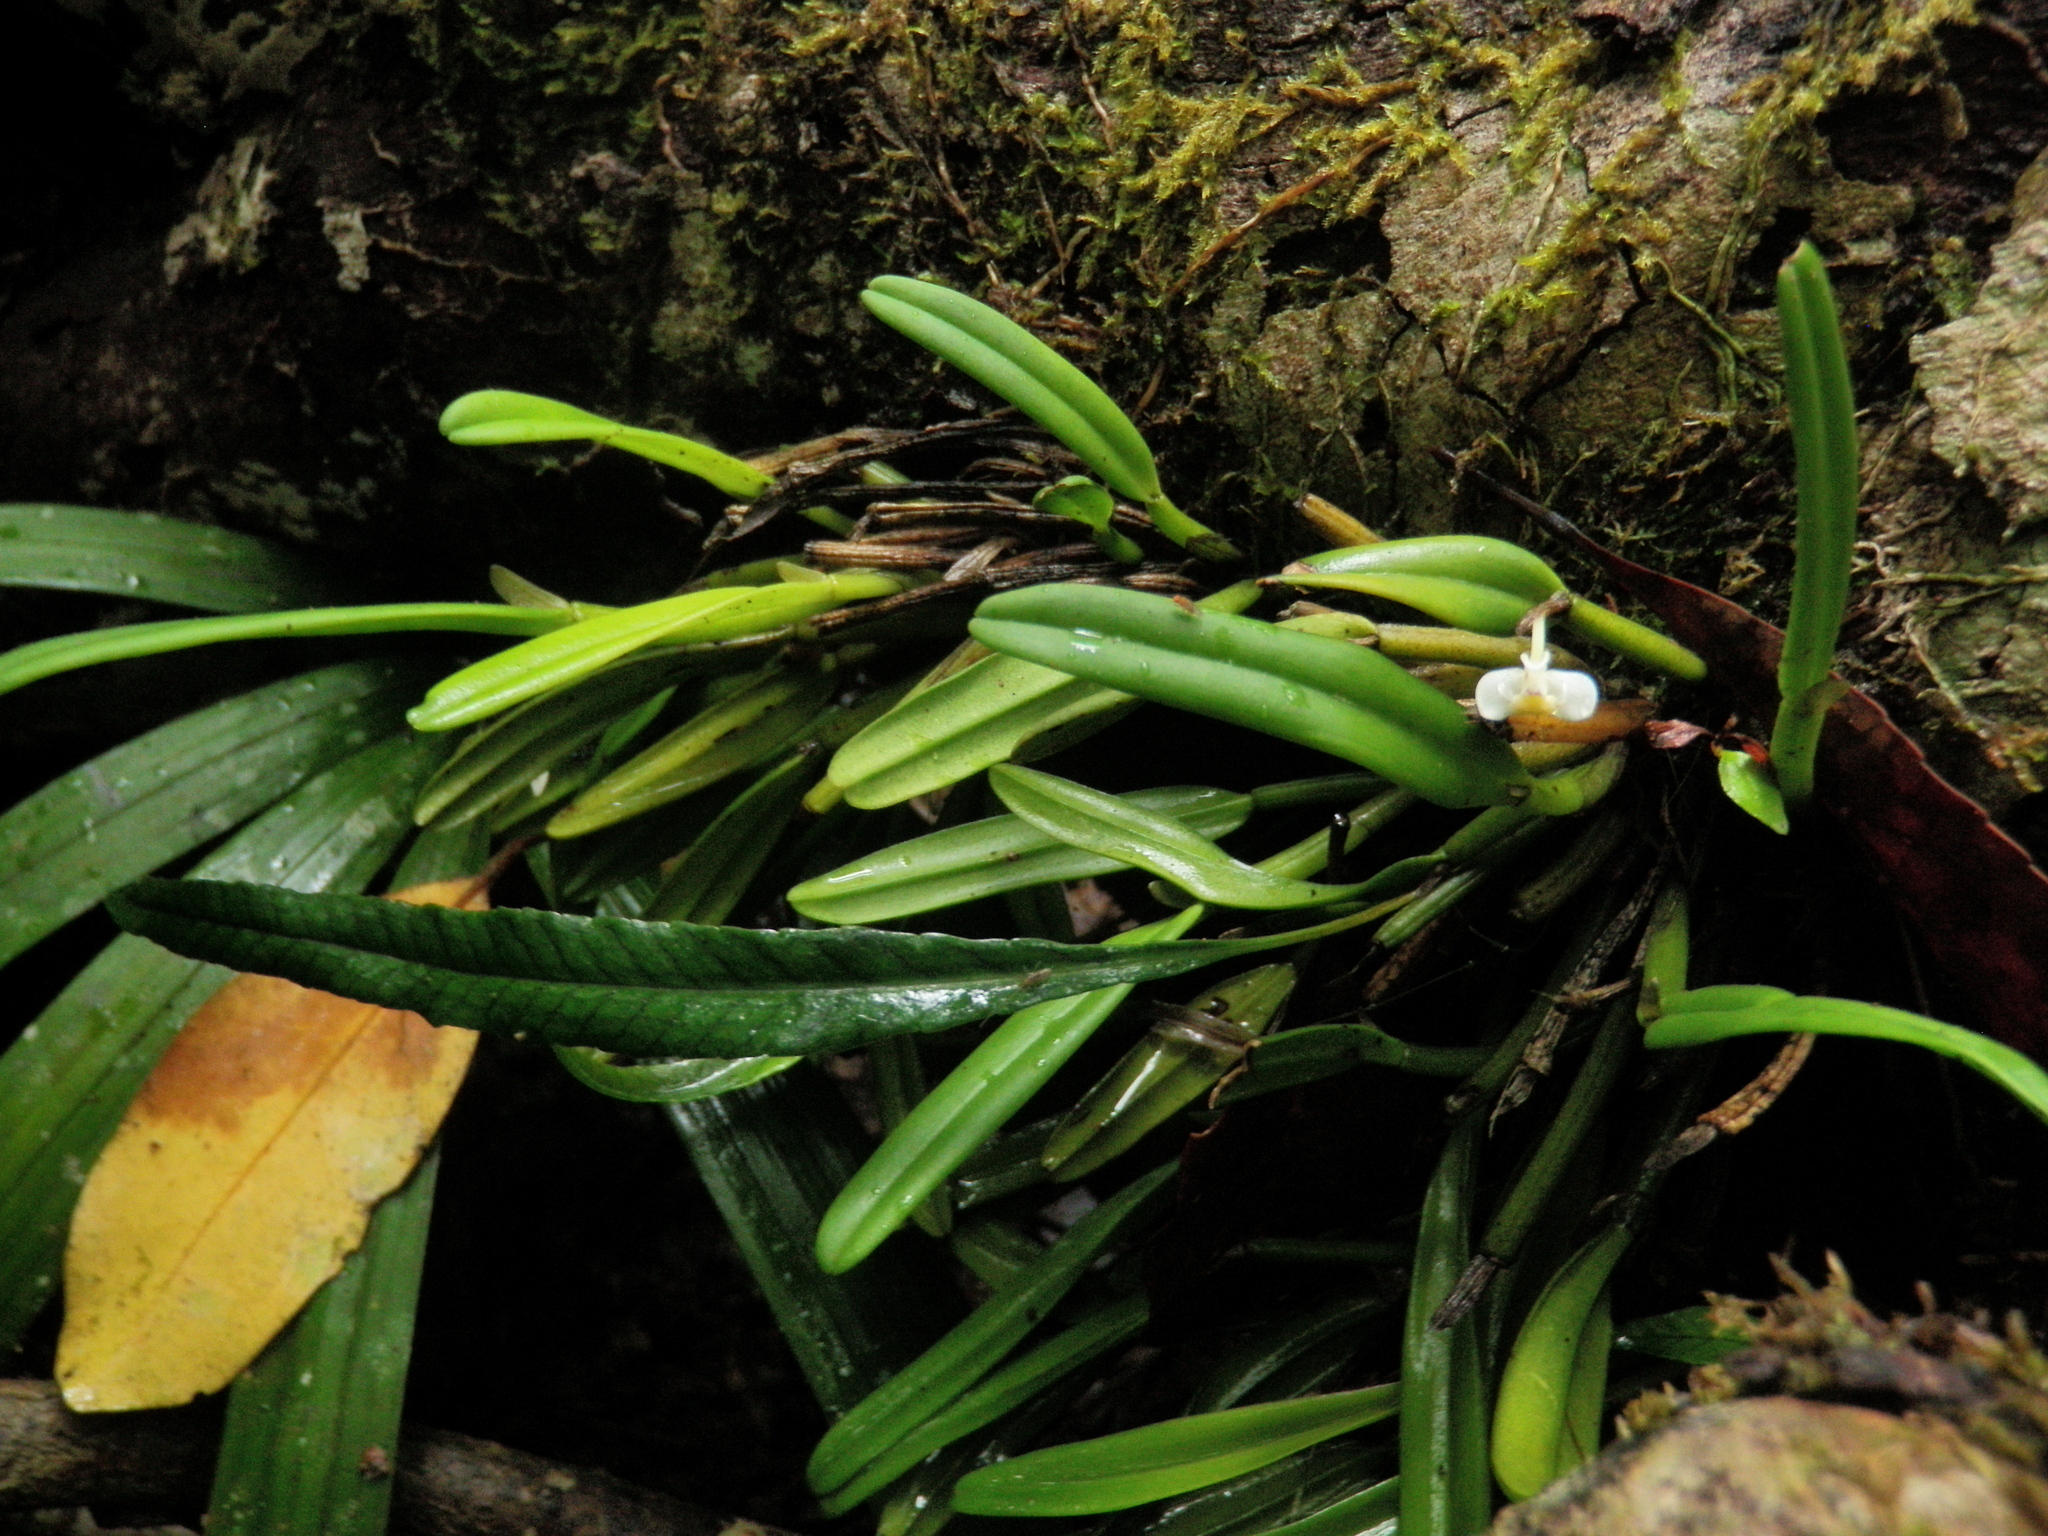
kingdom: Plantae
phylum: Tracheophyta
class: Liliopsida
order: Asparagales
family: Orchidaceae
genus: Dendrobium
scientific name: Dendrobium taylorii
